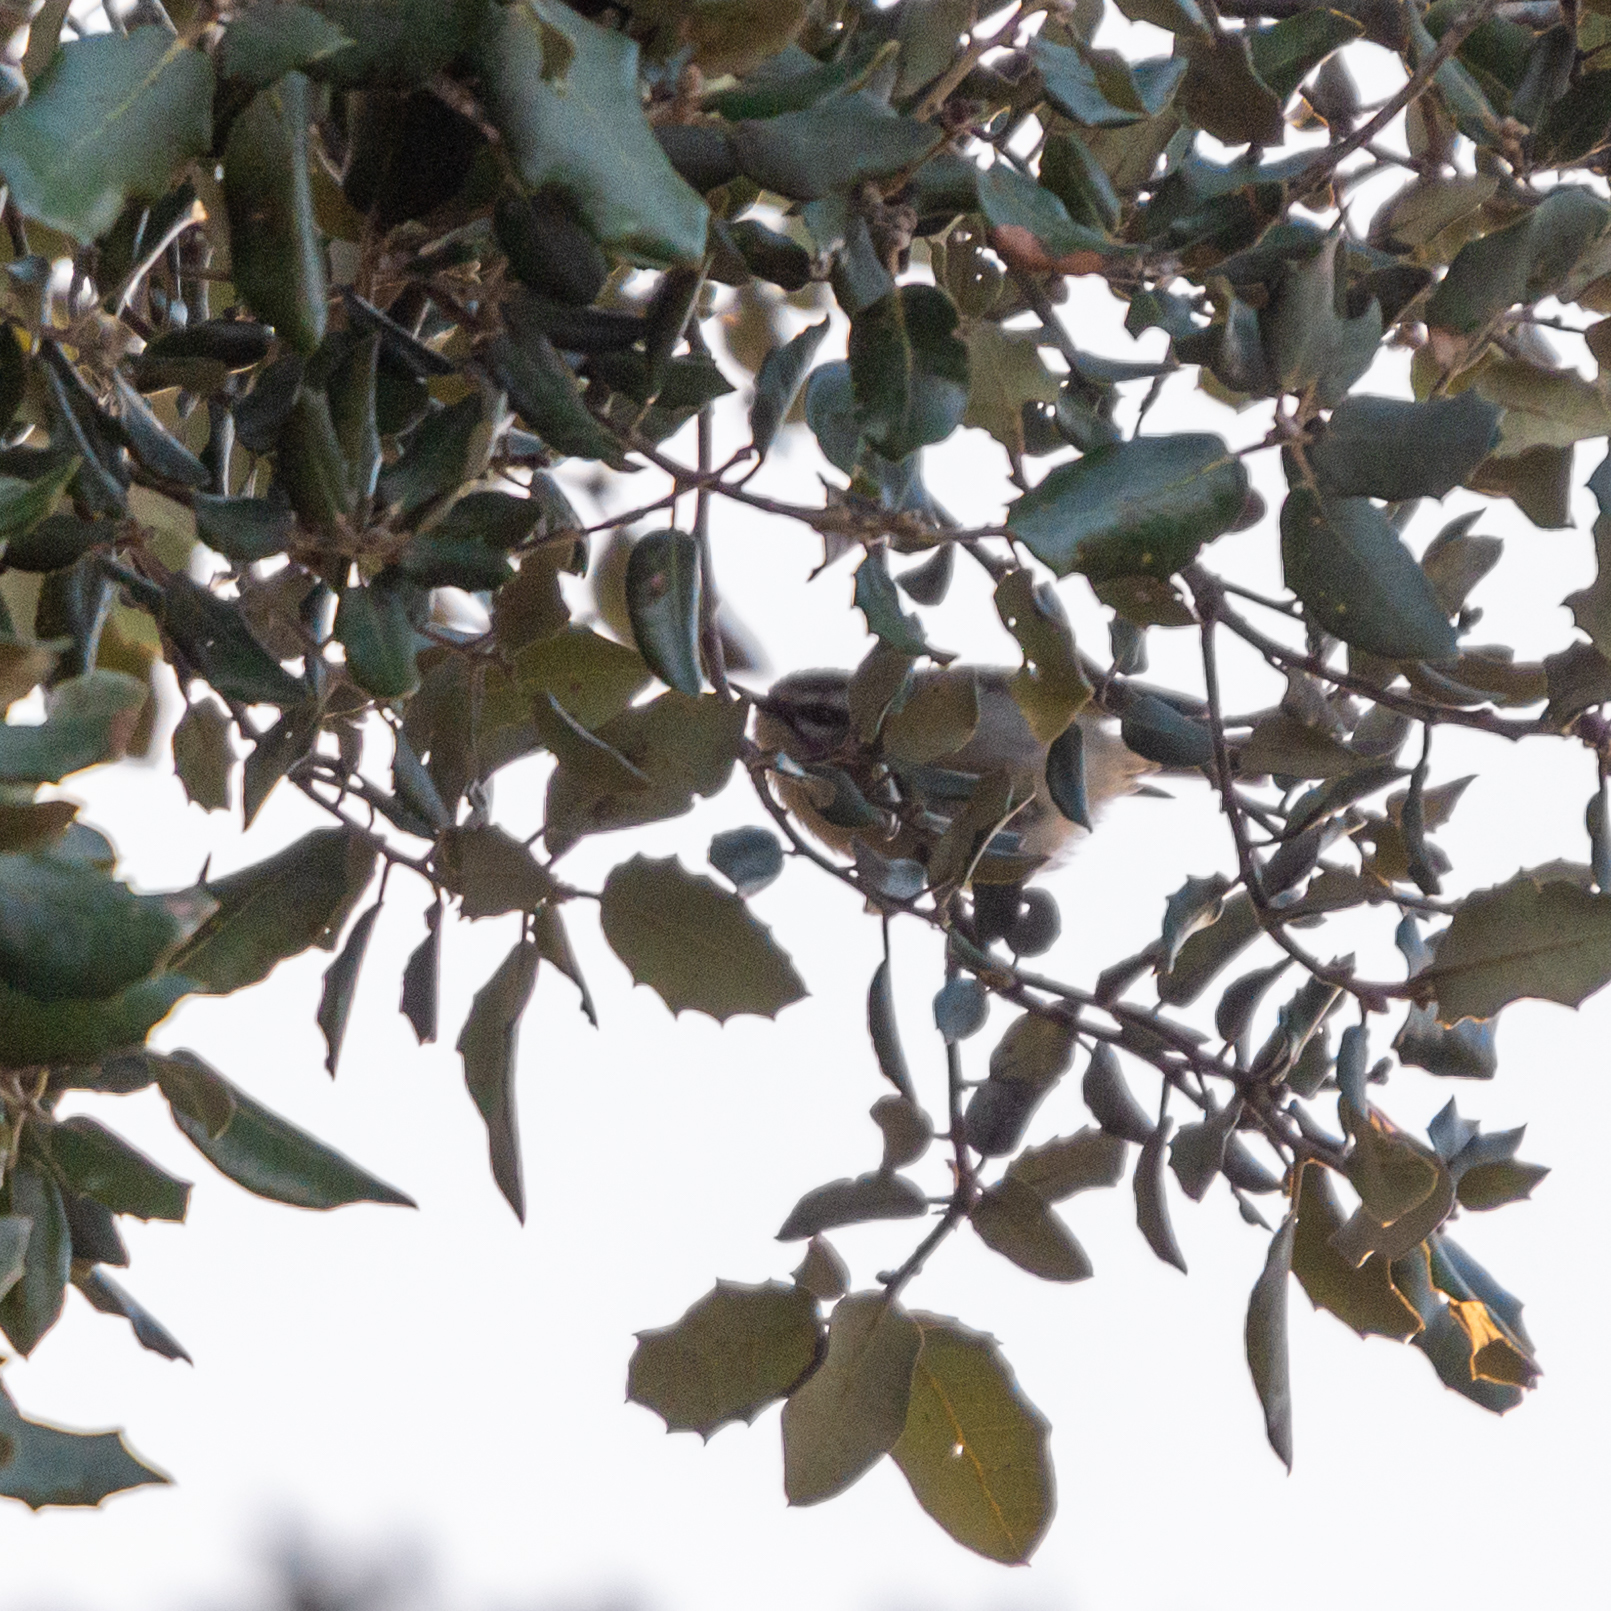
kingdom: Animalia
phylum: Chordata
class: Aves
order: Passeriformes
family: Regulidae
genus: Regulus
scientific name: Regulus ignicapilla
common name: Firecrest
